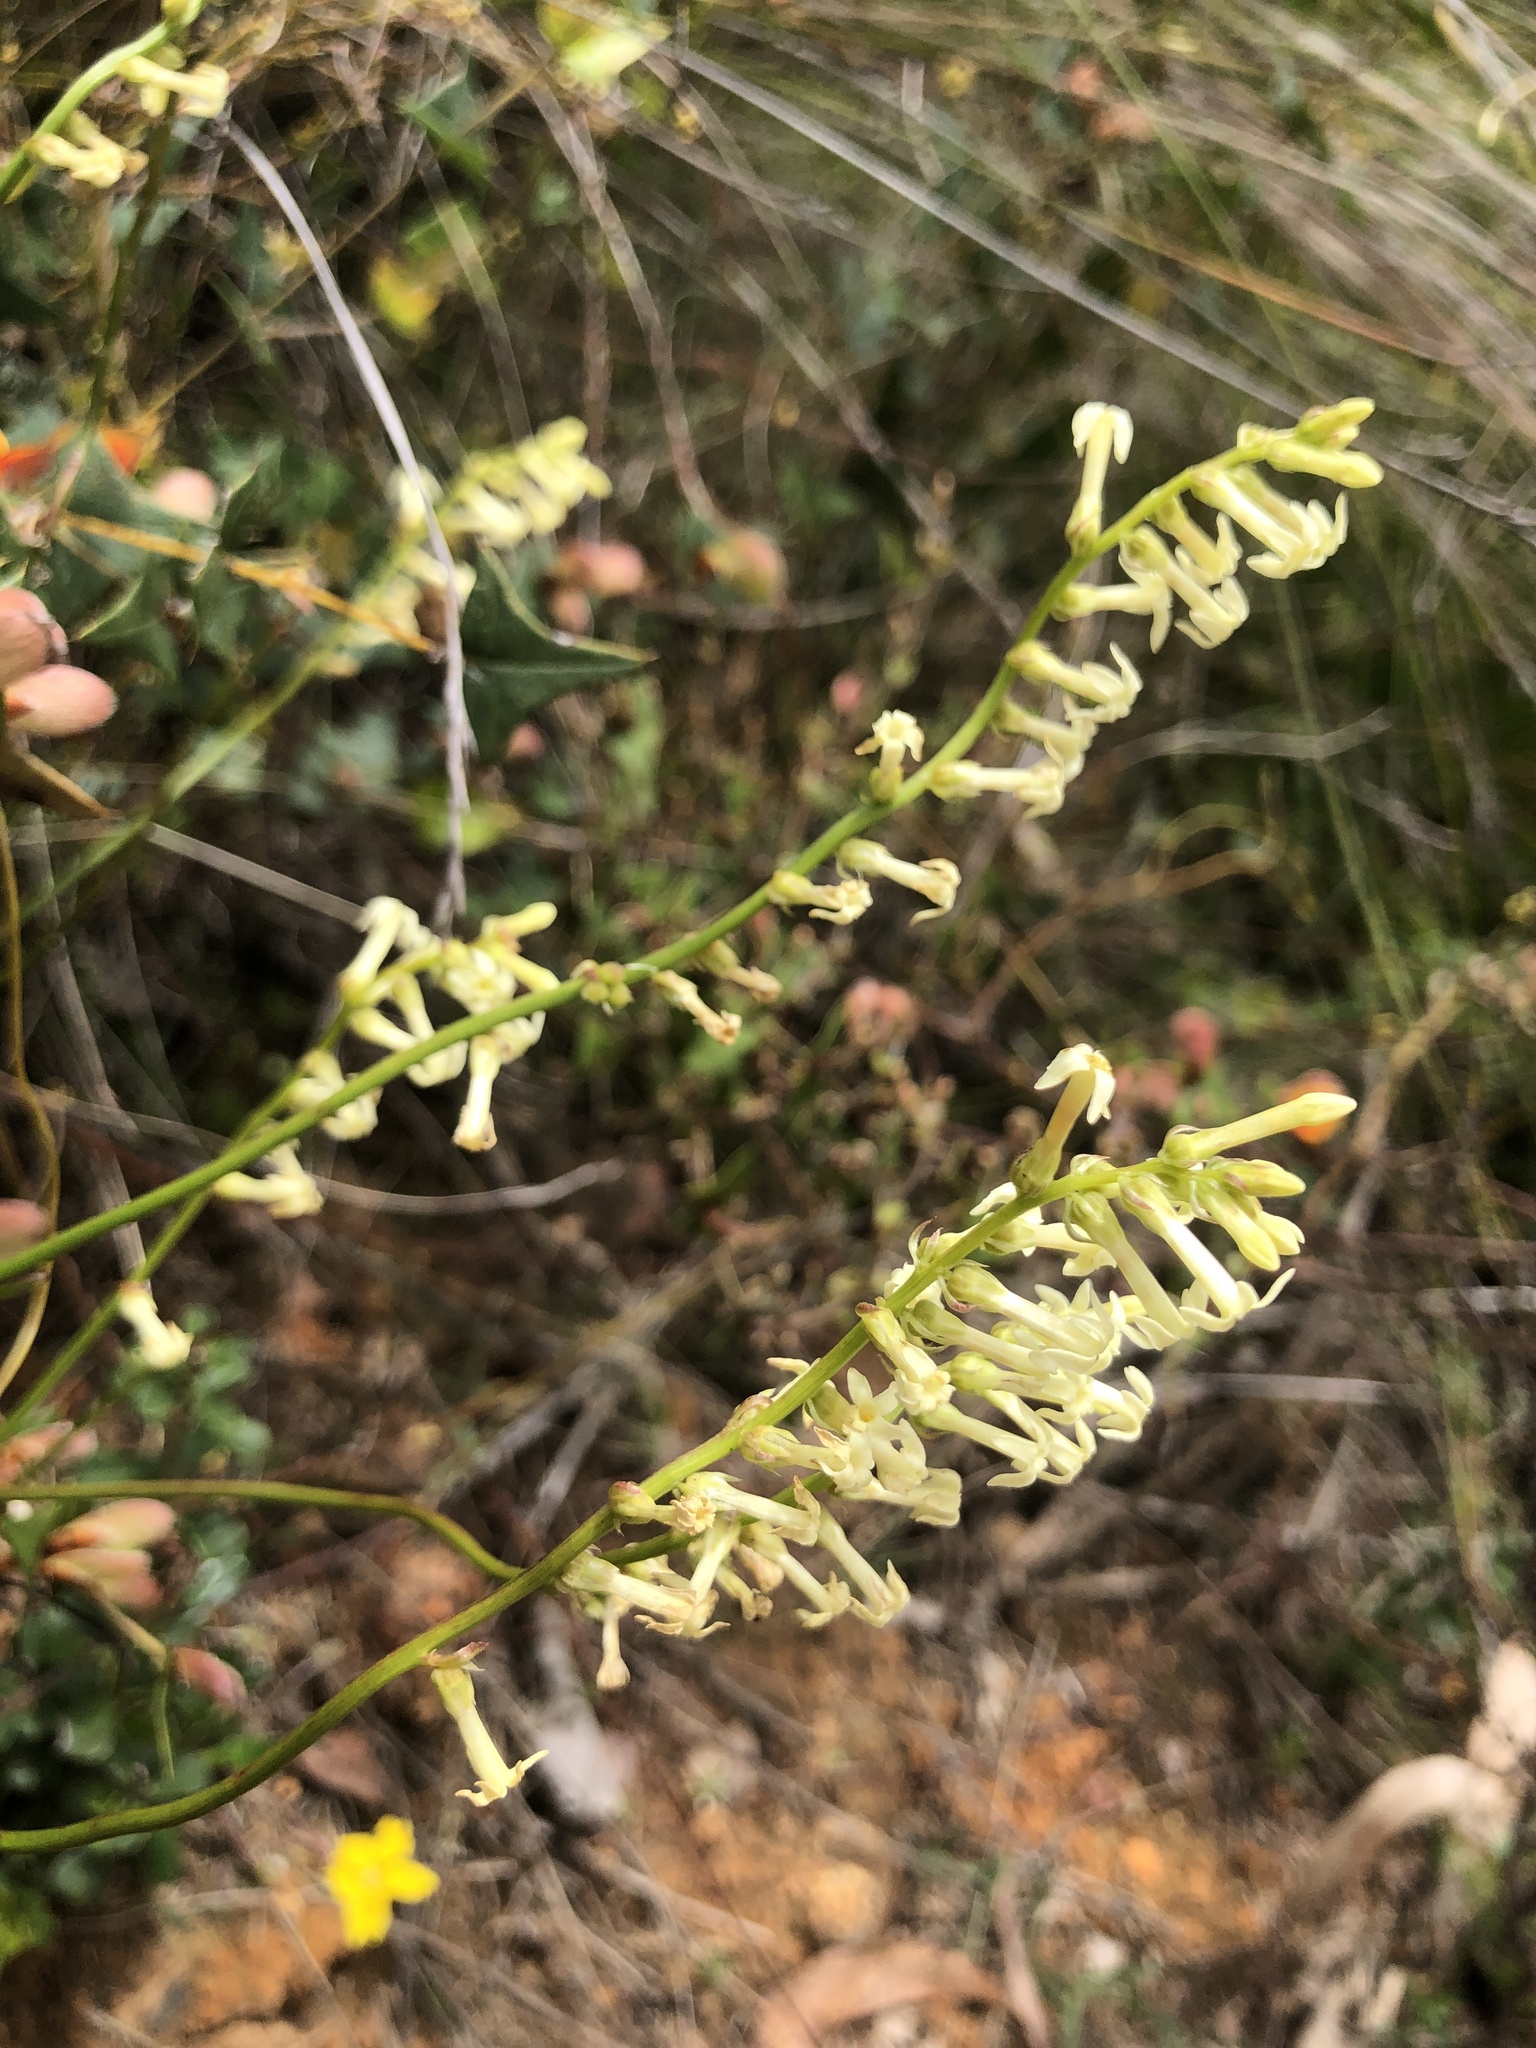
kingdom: Plantae
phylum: Tracheophyta
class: Magnoliopsida
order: Celastrales
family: Celastraceae
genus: Stackhousia
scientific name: Stackhousia monogyna
